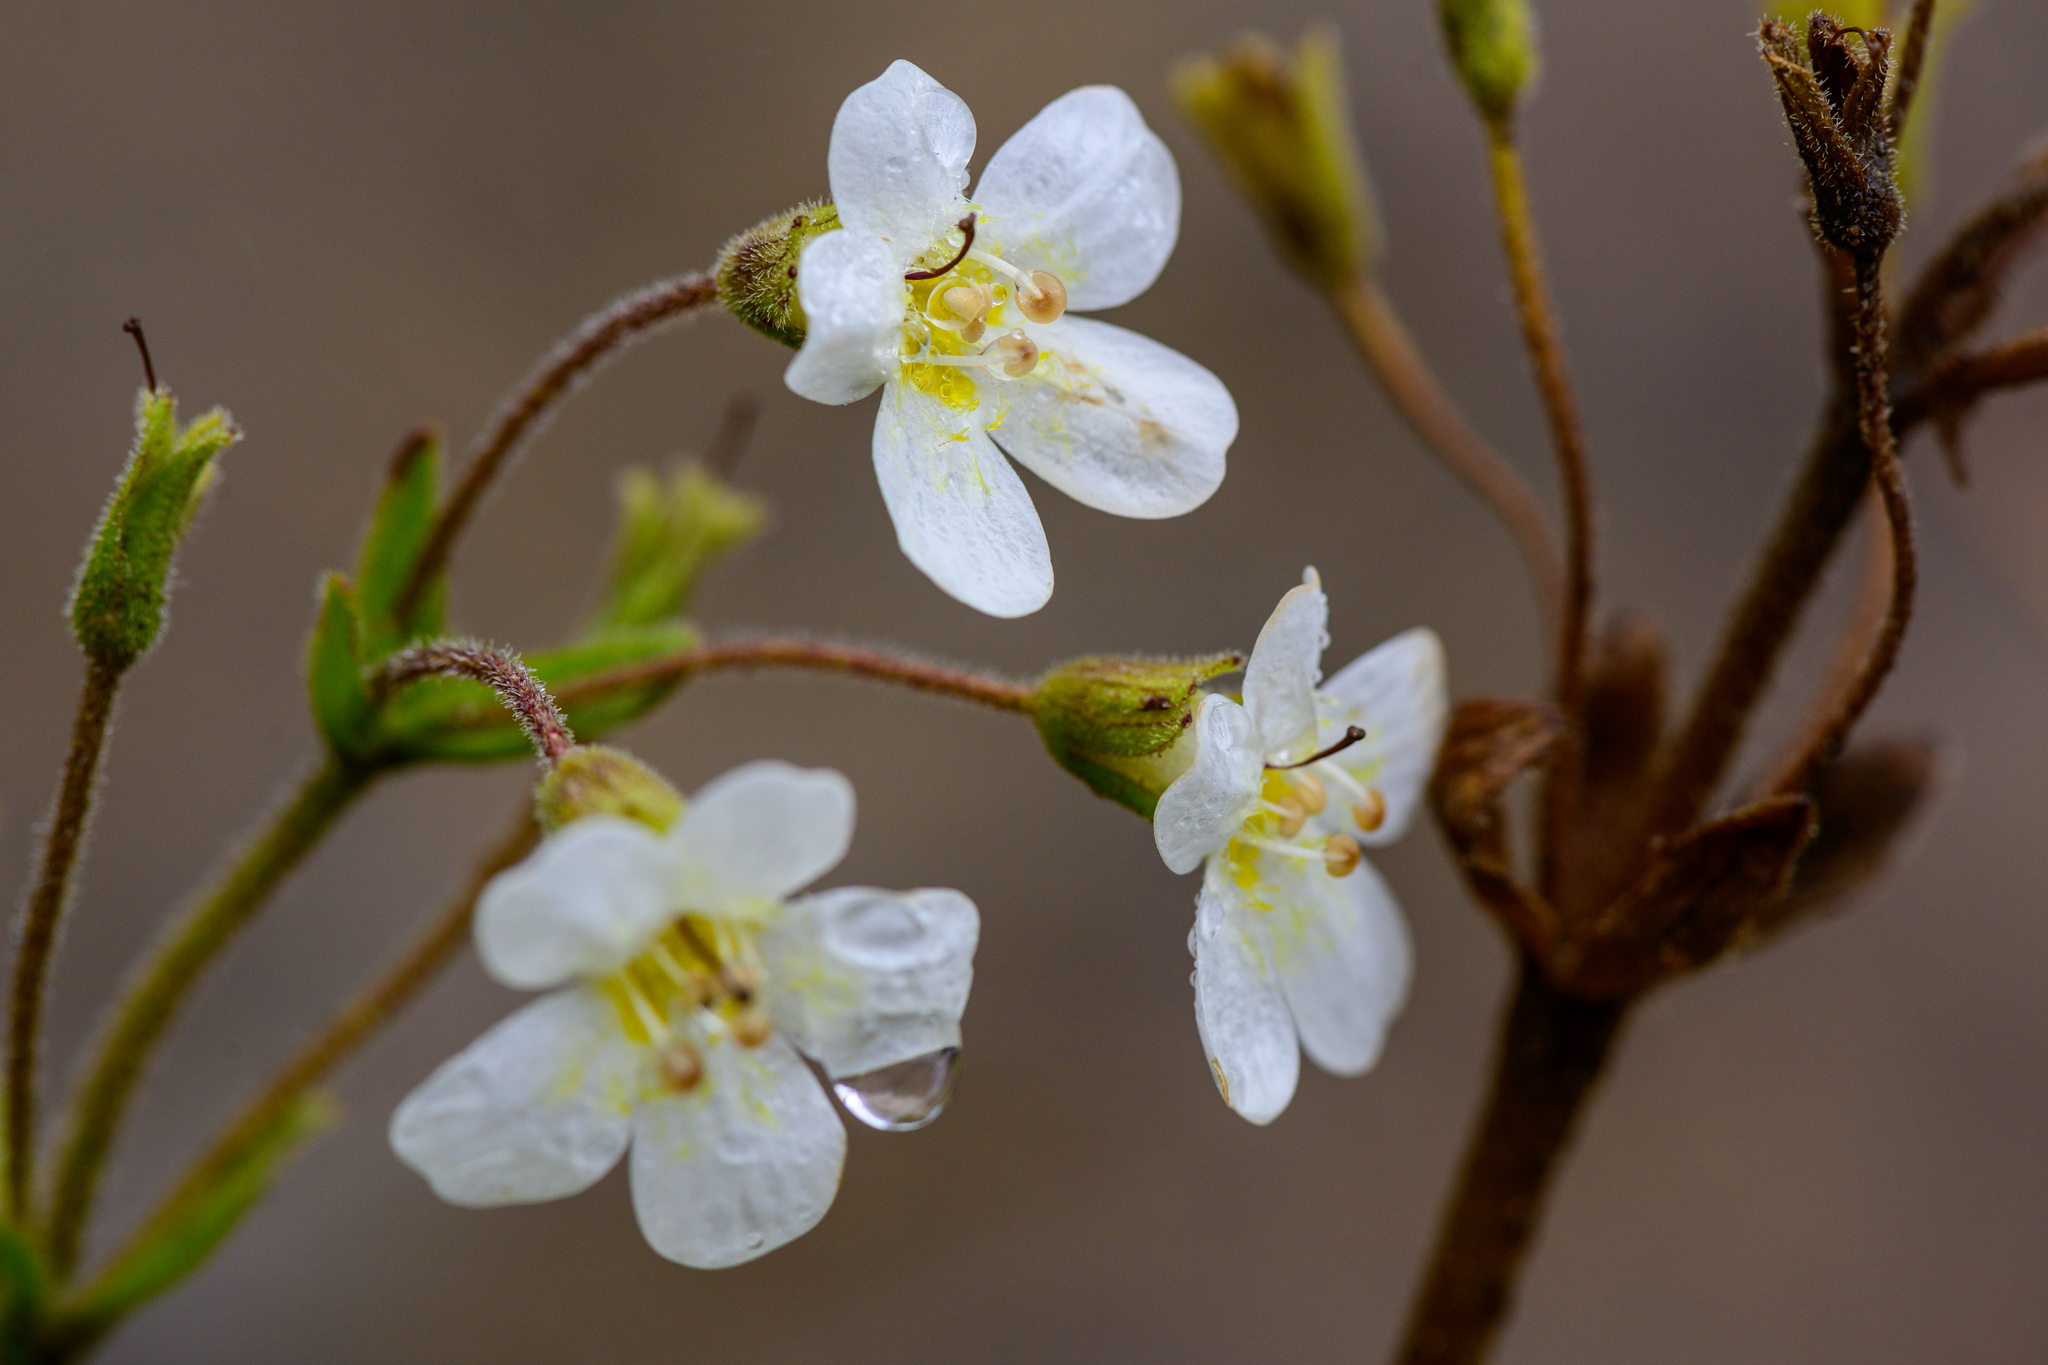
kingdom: Plantae
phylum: Tracheophyta
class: Magnoliopsida
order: Lamiales
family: Plantaginaceae
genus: Ourisia
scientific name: Ourisia macrophylla
